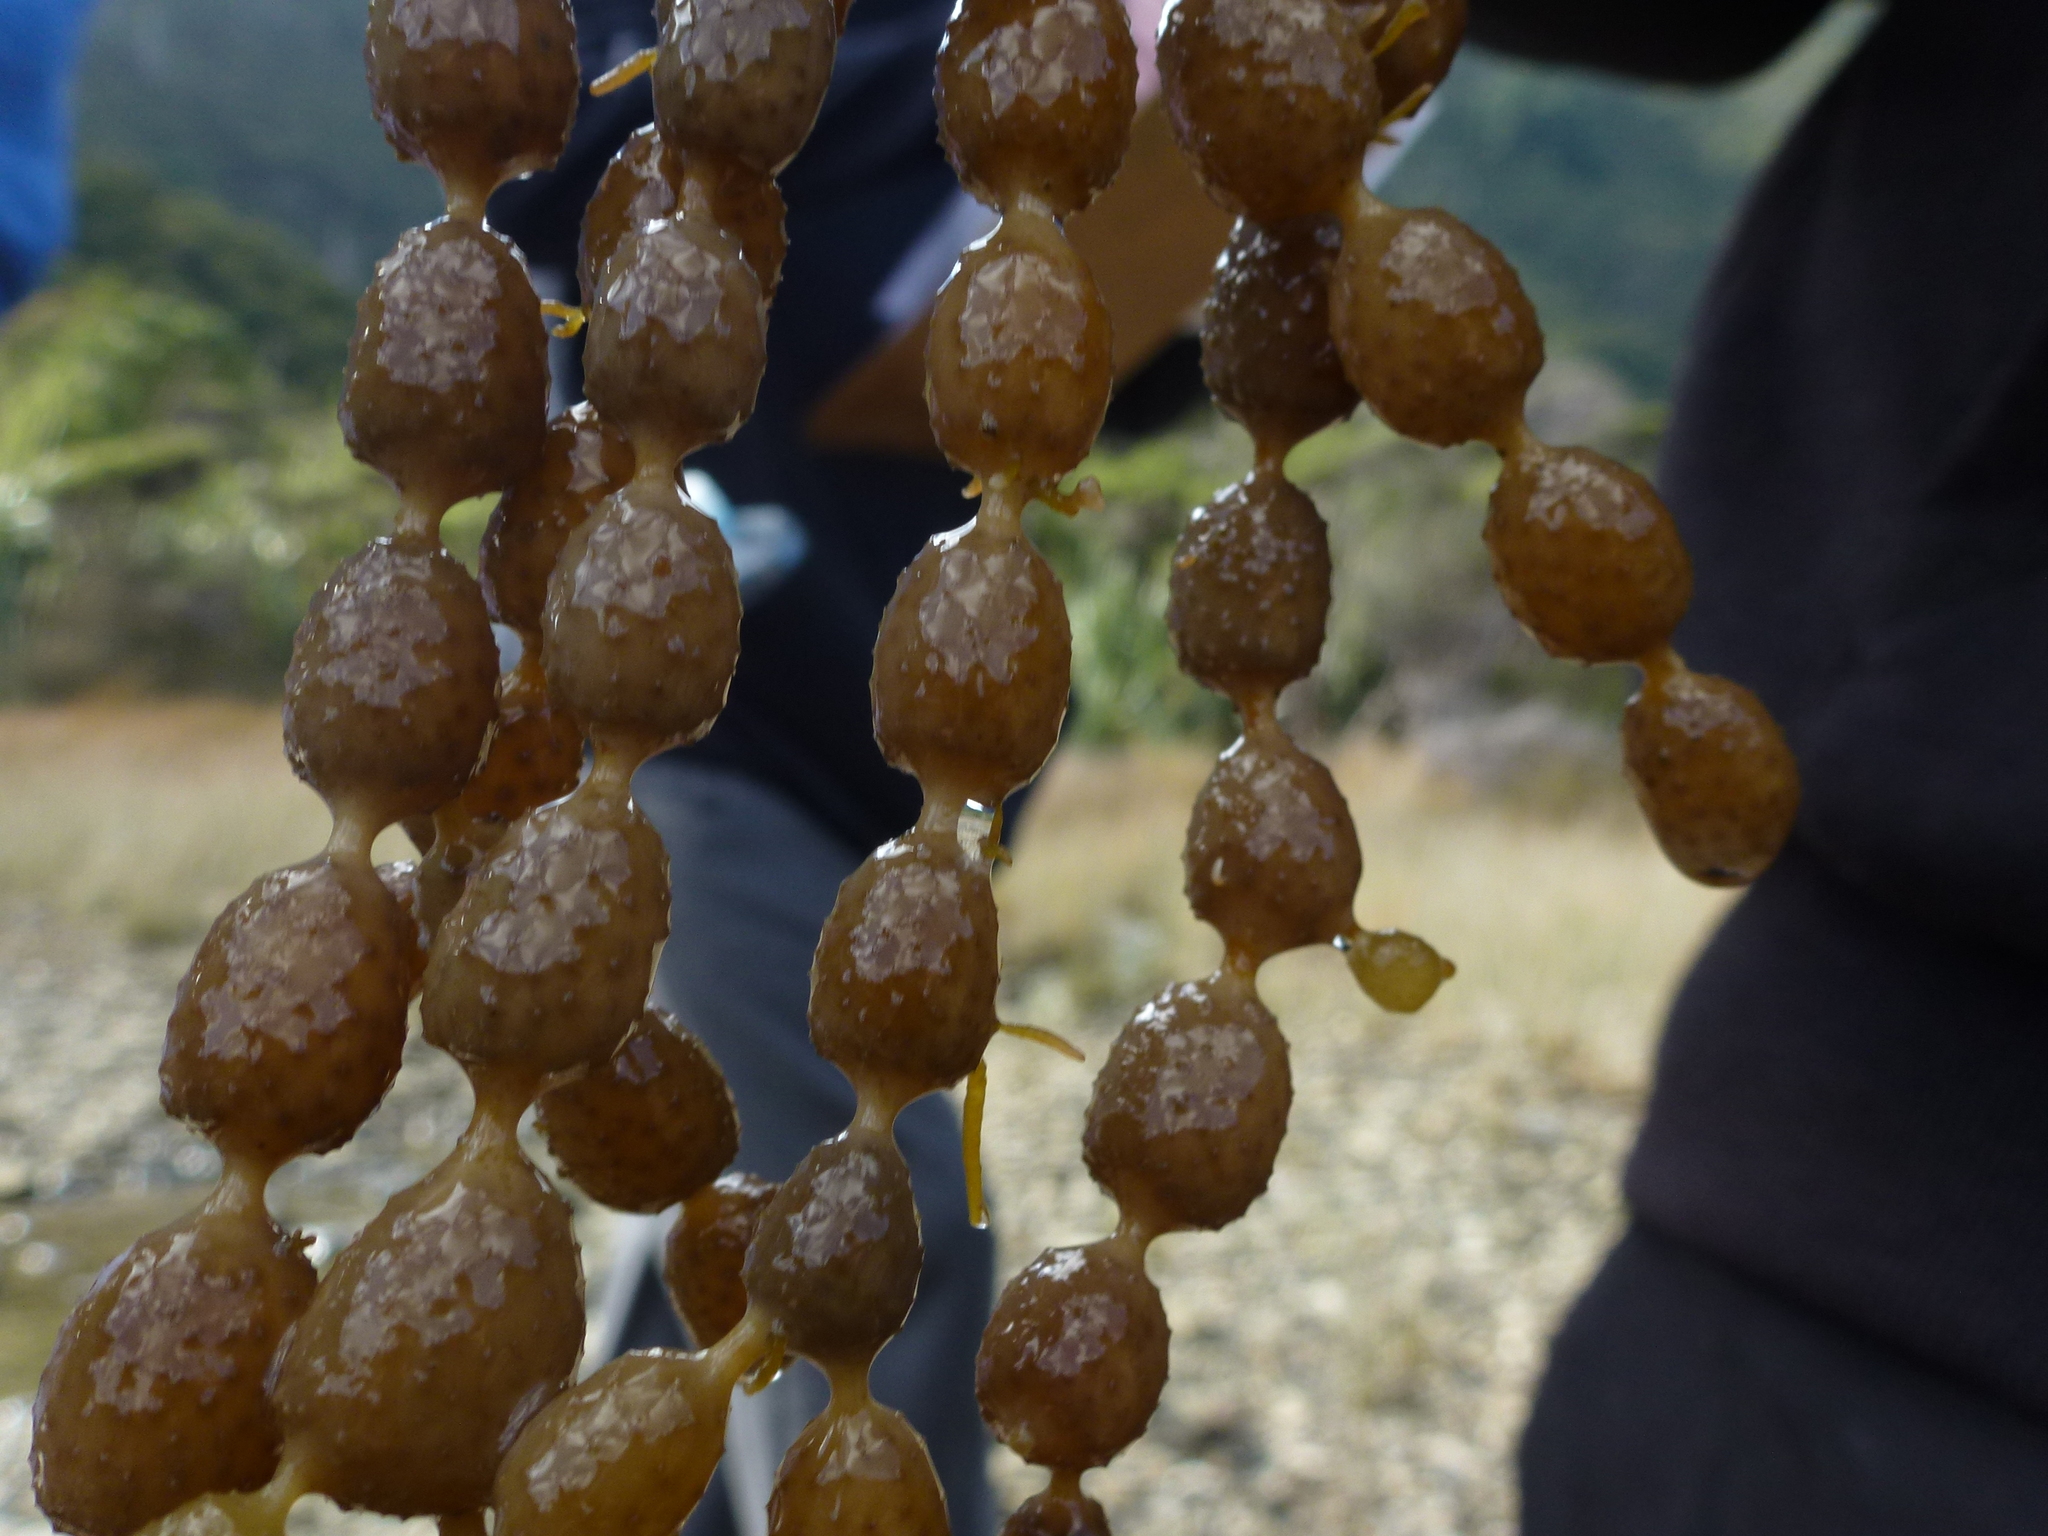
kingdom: Chromista
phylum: Ochrophyta
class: Phaeophyceae
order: Fucales
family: Hormosiraceae
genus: Hormosira
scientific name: Hormosira banksii
